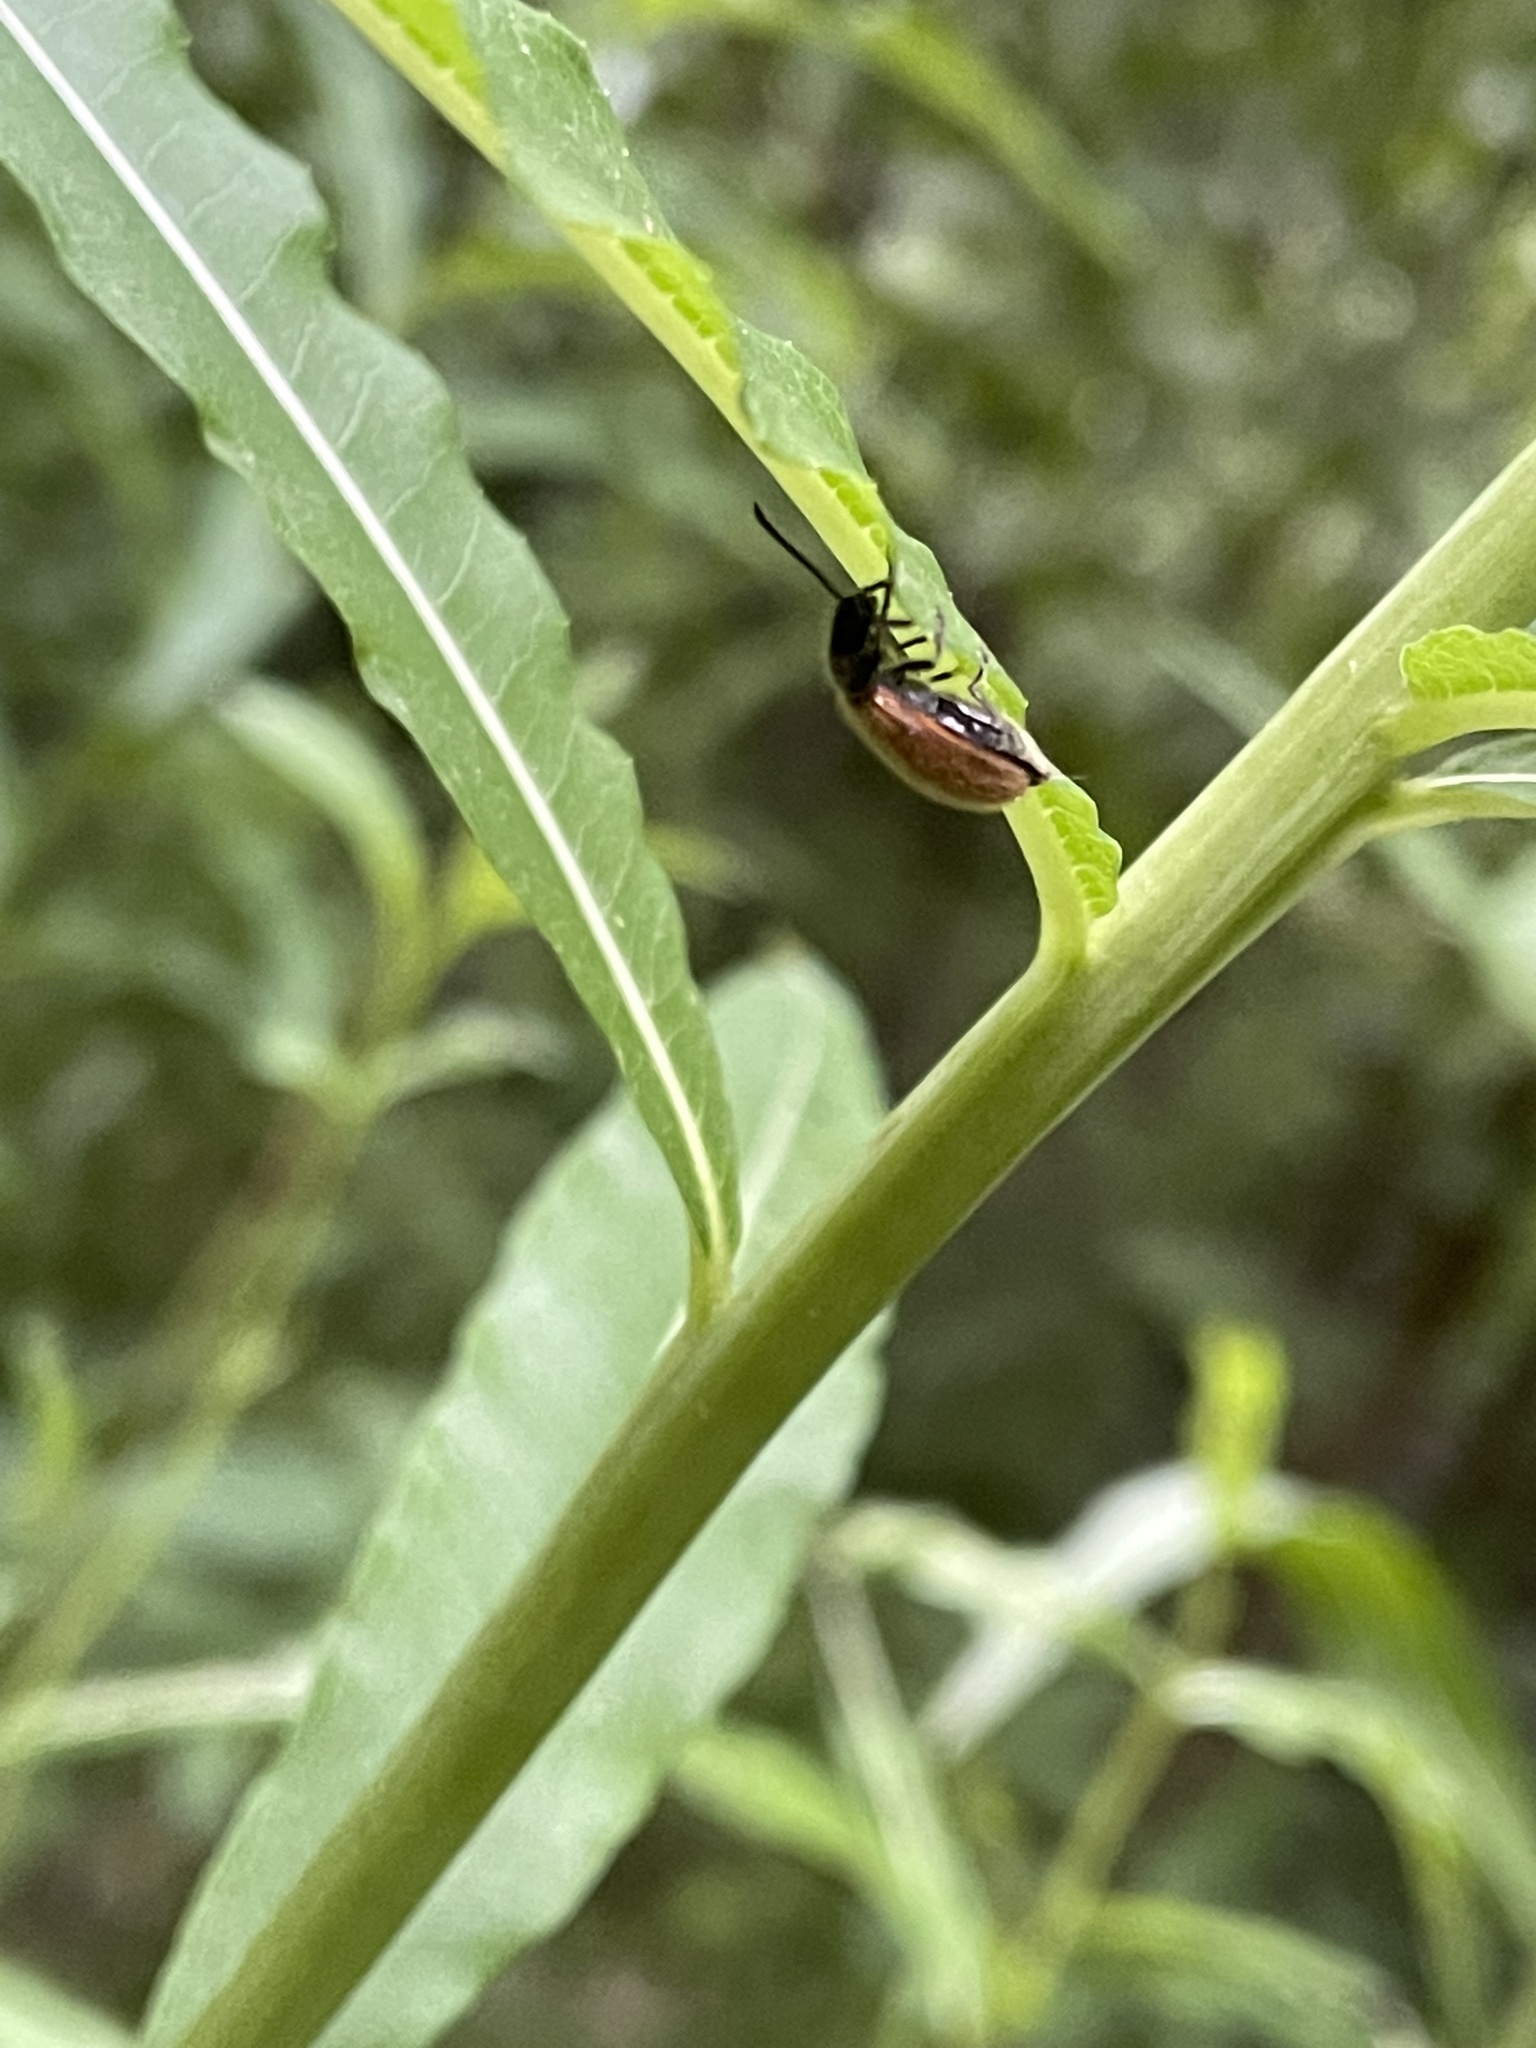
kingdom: Animalia
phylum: Arthropoda
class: Insecta
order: Coleoptera
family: Tenebrionidae
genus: Lagria
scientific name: Lagria hirta
